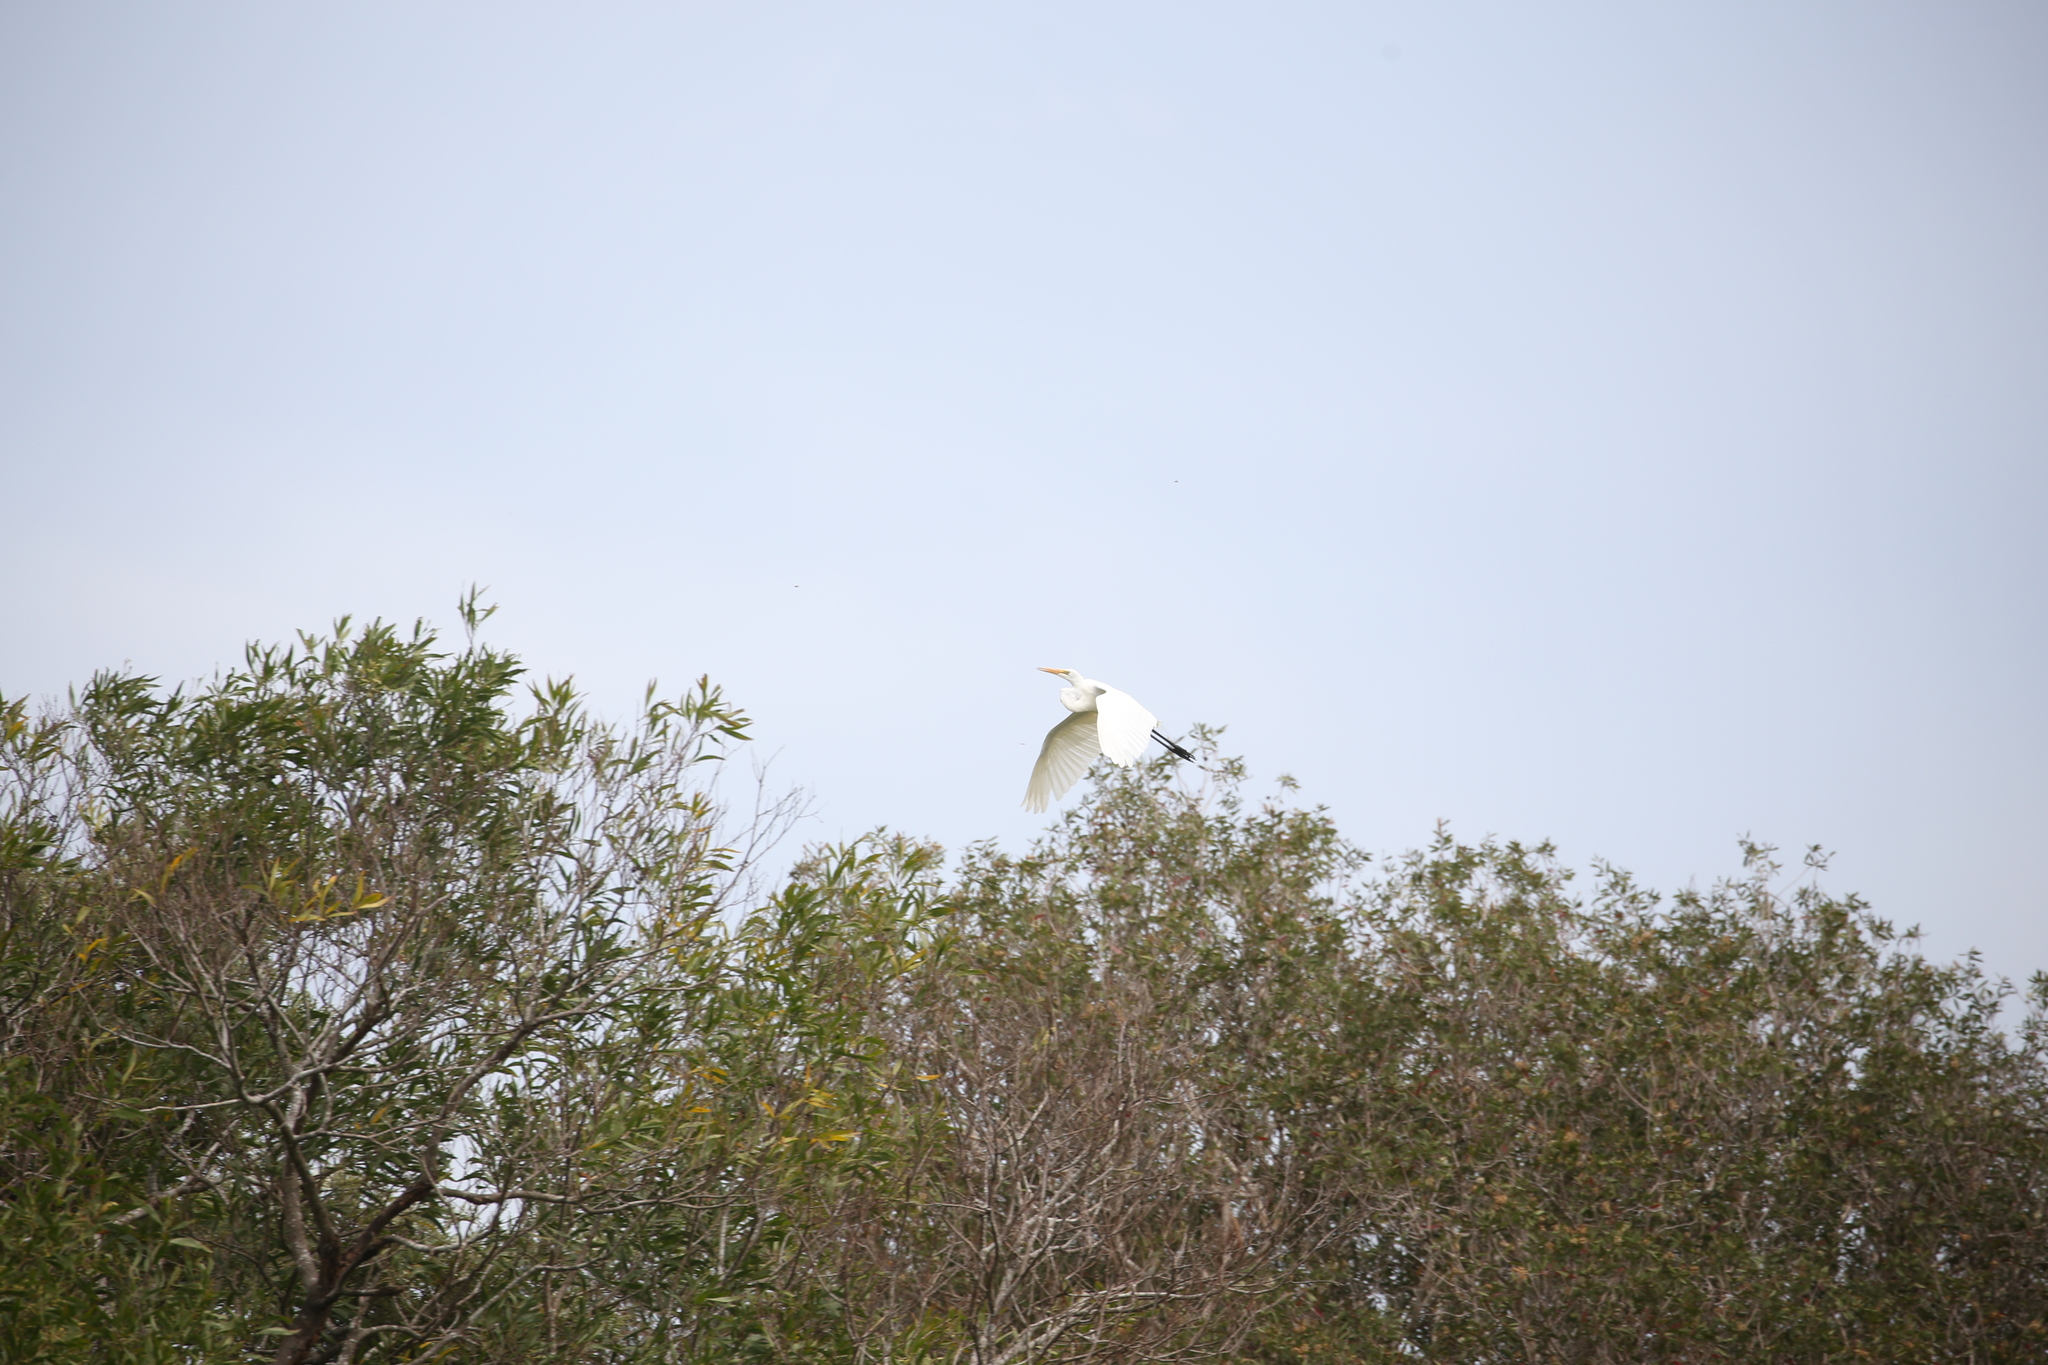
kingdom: Animalia
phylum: Chordata
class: Aves
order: Pelecaniformes
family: Ardeidae
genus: Ardea
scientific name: Ardea alba
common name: Great egret
